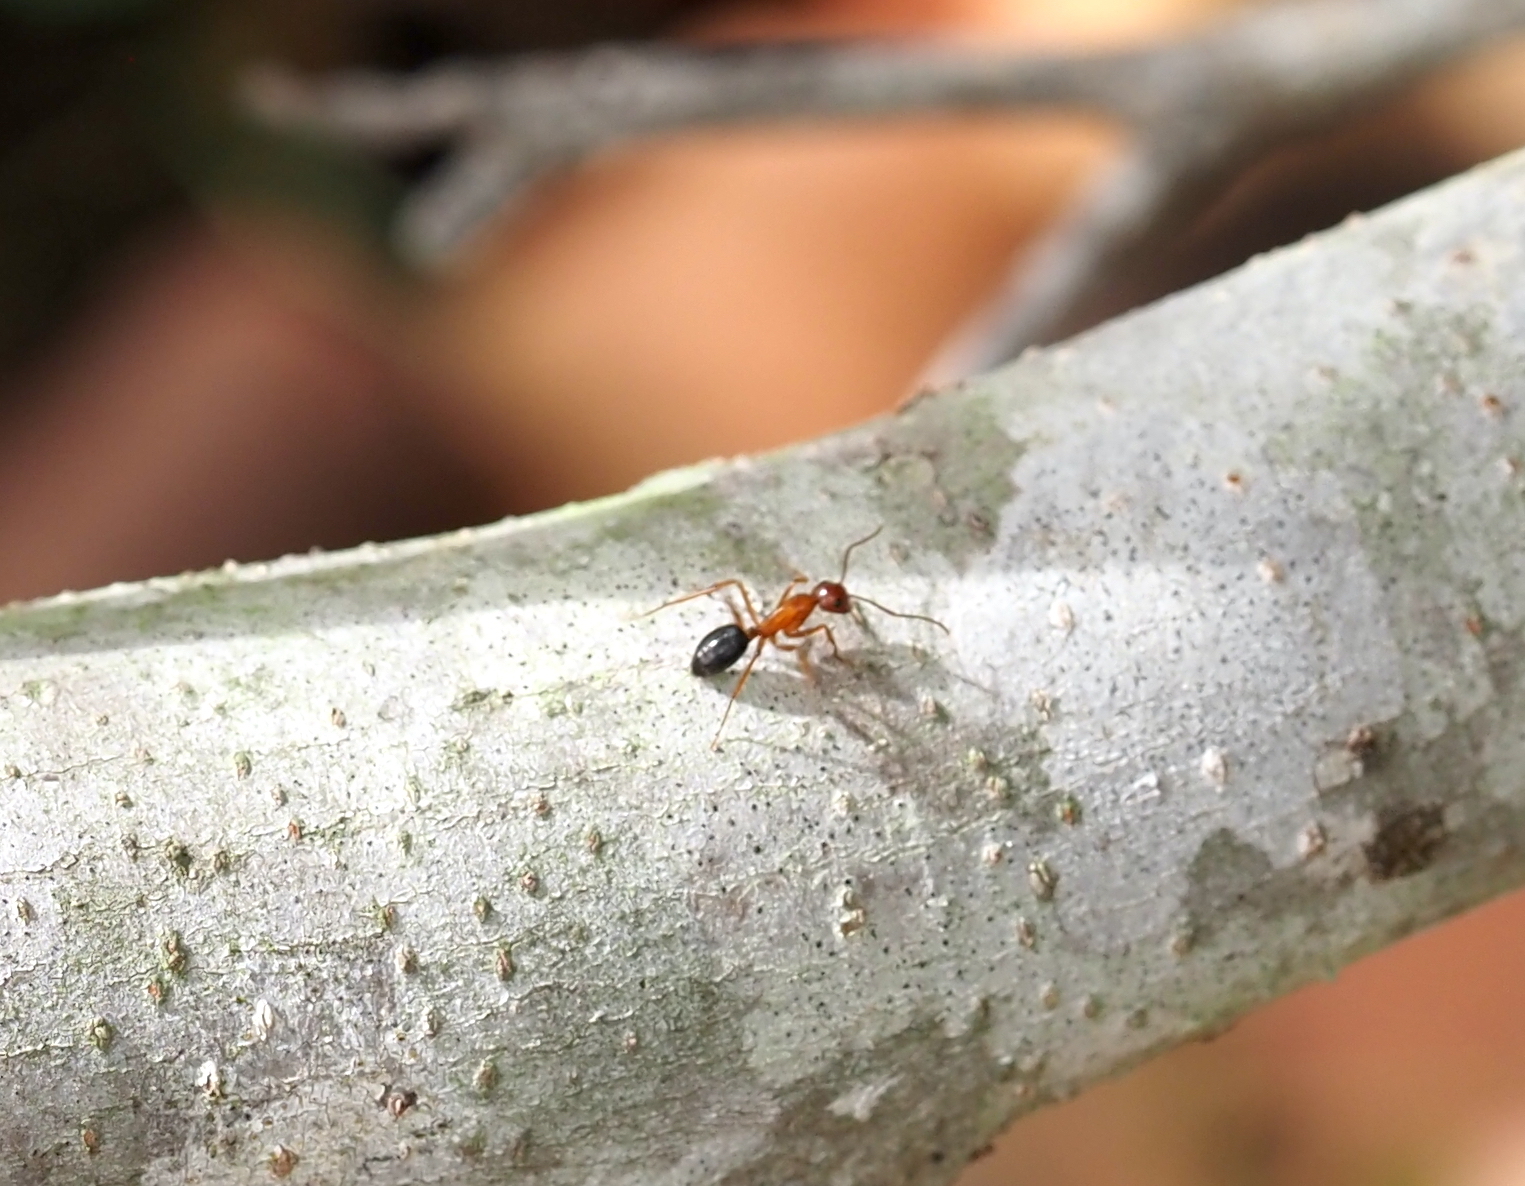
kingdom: Animalia
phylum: Arthropoda
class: Insecta
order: Hymenoptera
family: Formicidae
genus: Camponotus
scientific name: Camponotus floridanus
